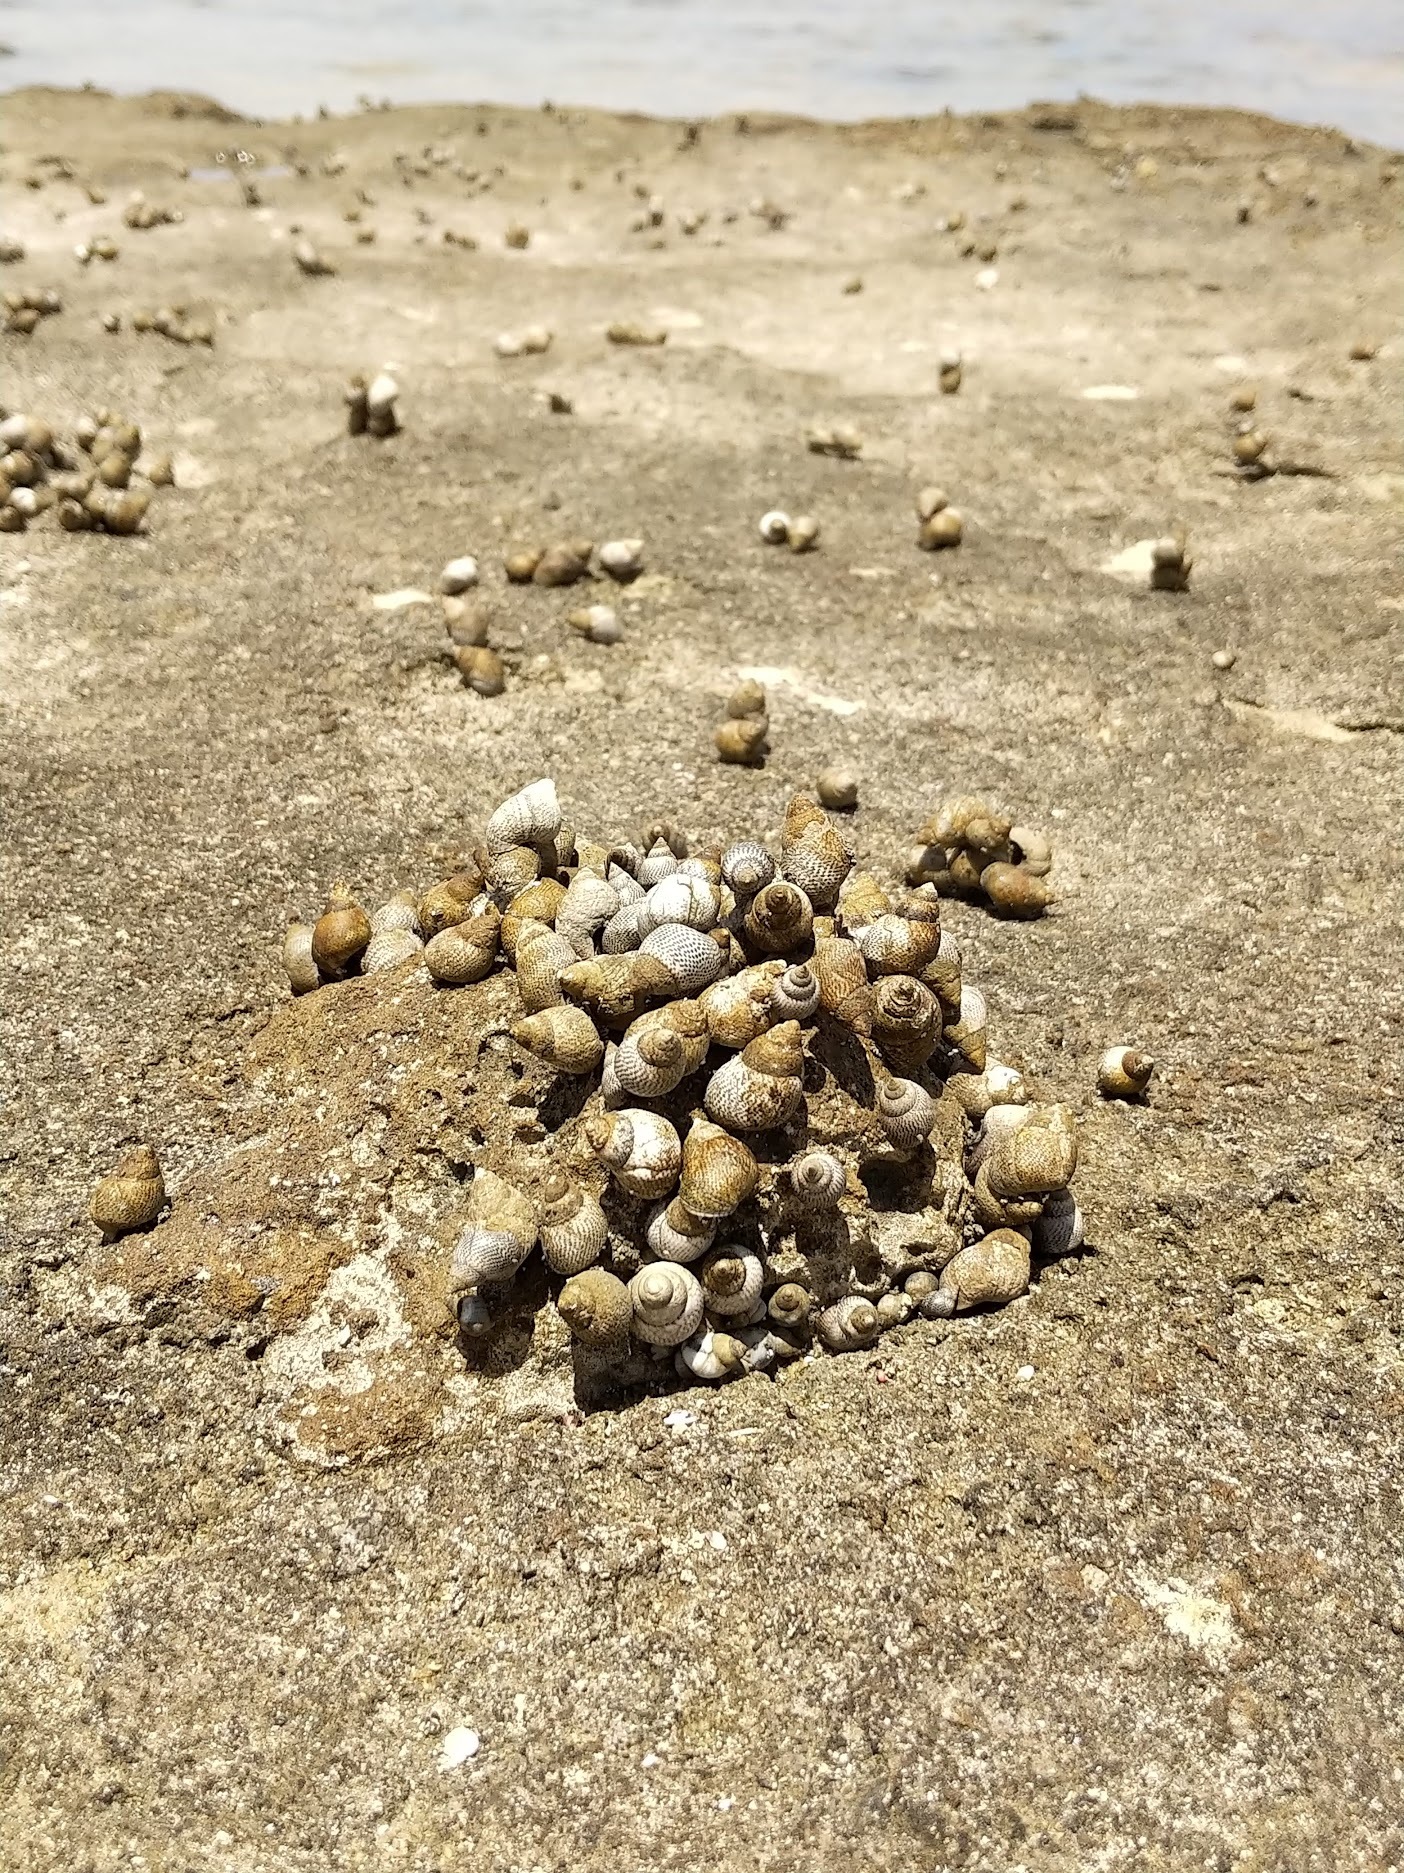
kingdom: Animalia
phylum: Mollusca
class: Gastropoda
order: Littorinimorpha
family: Littorinidae
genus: Littoraria
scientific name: Littoraria pintado
